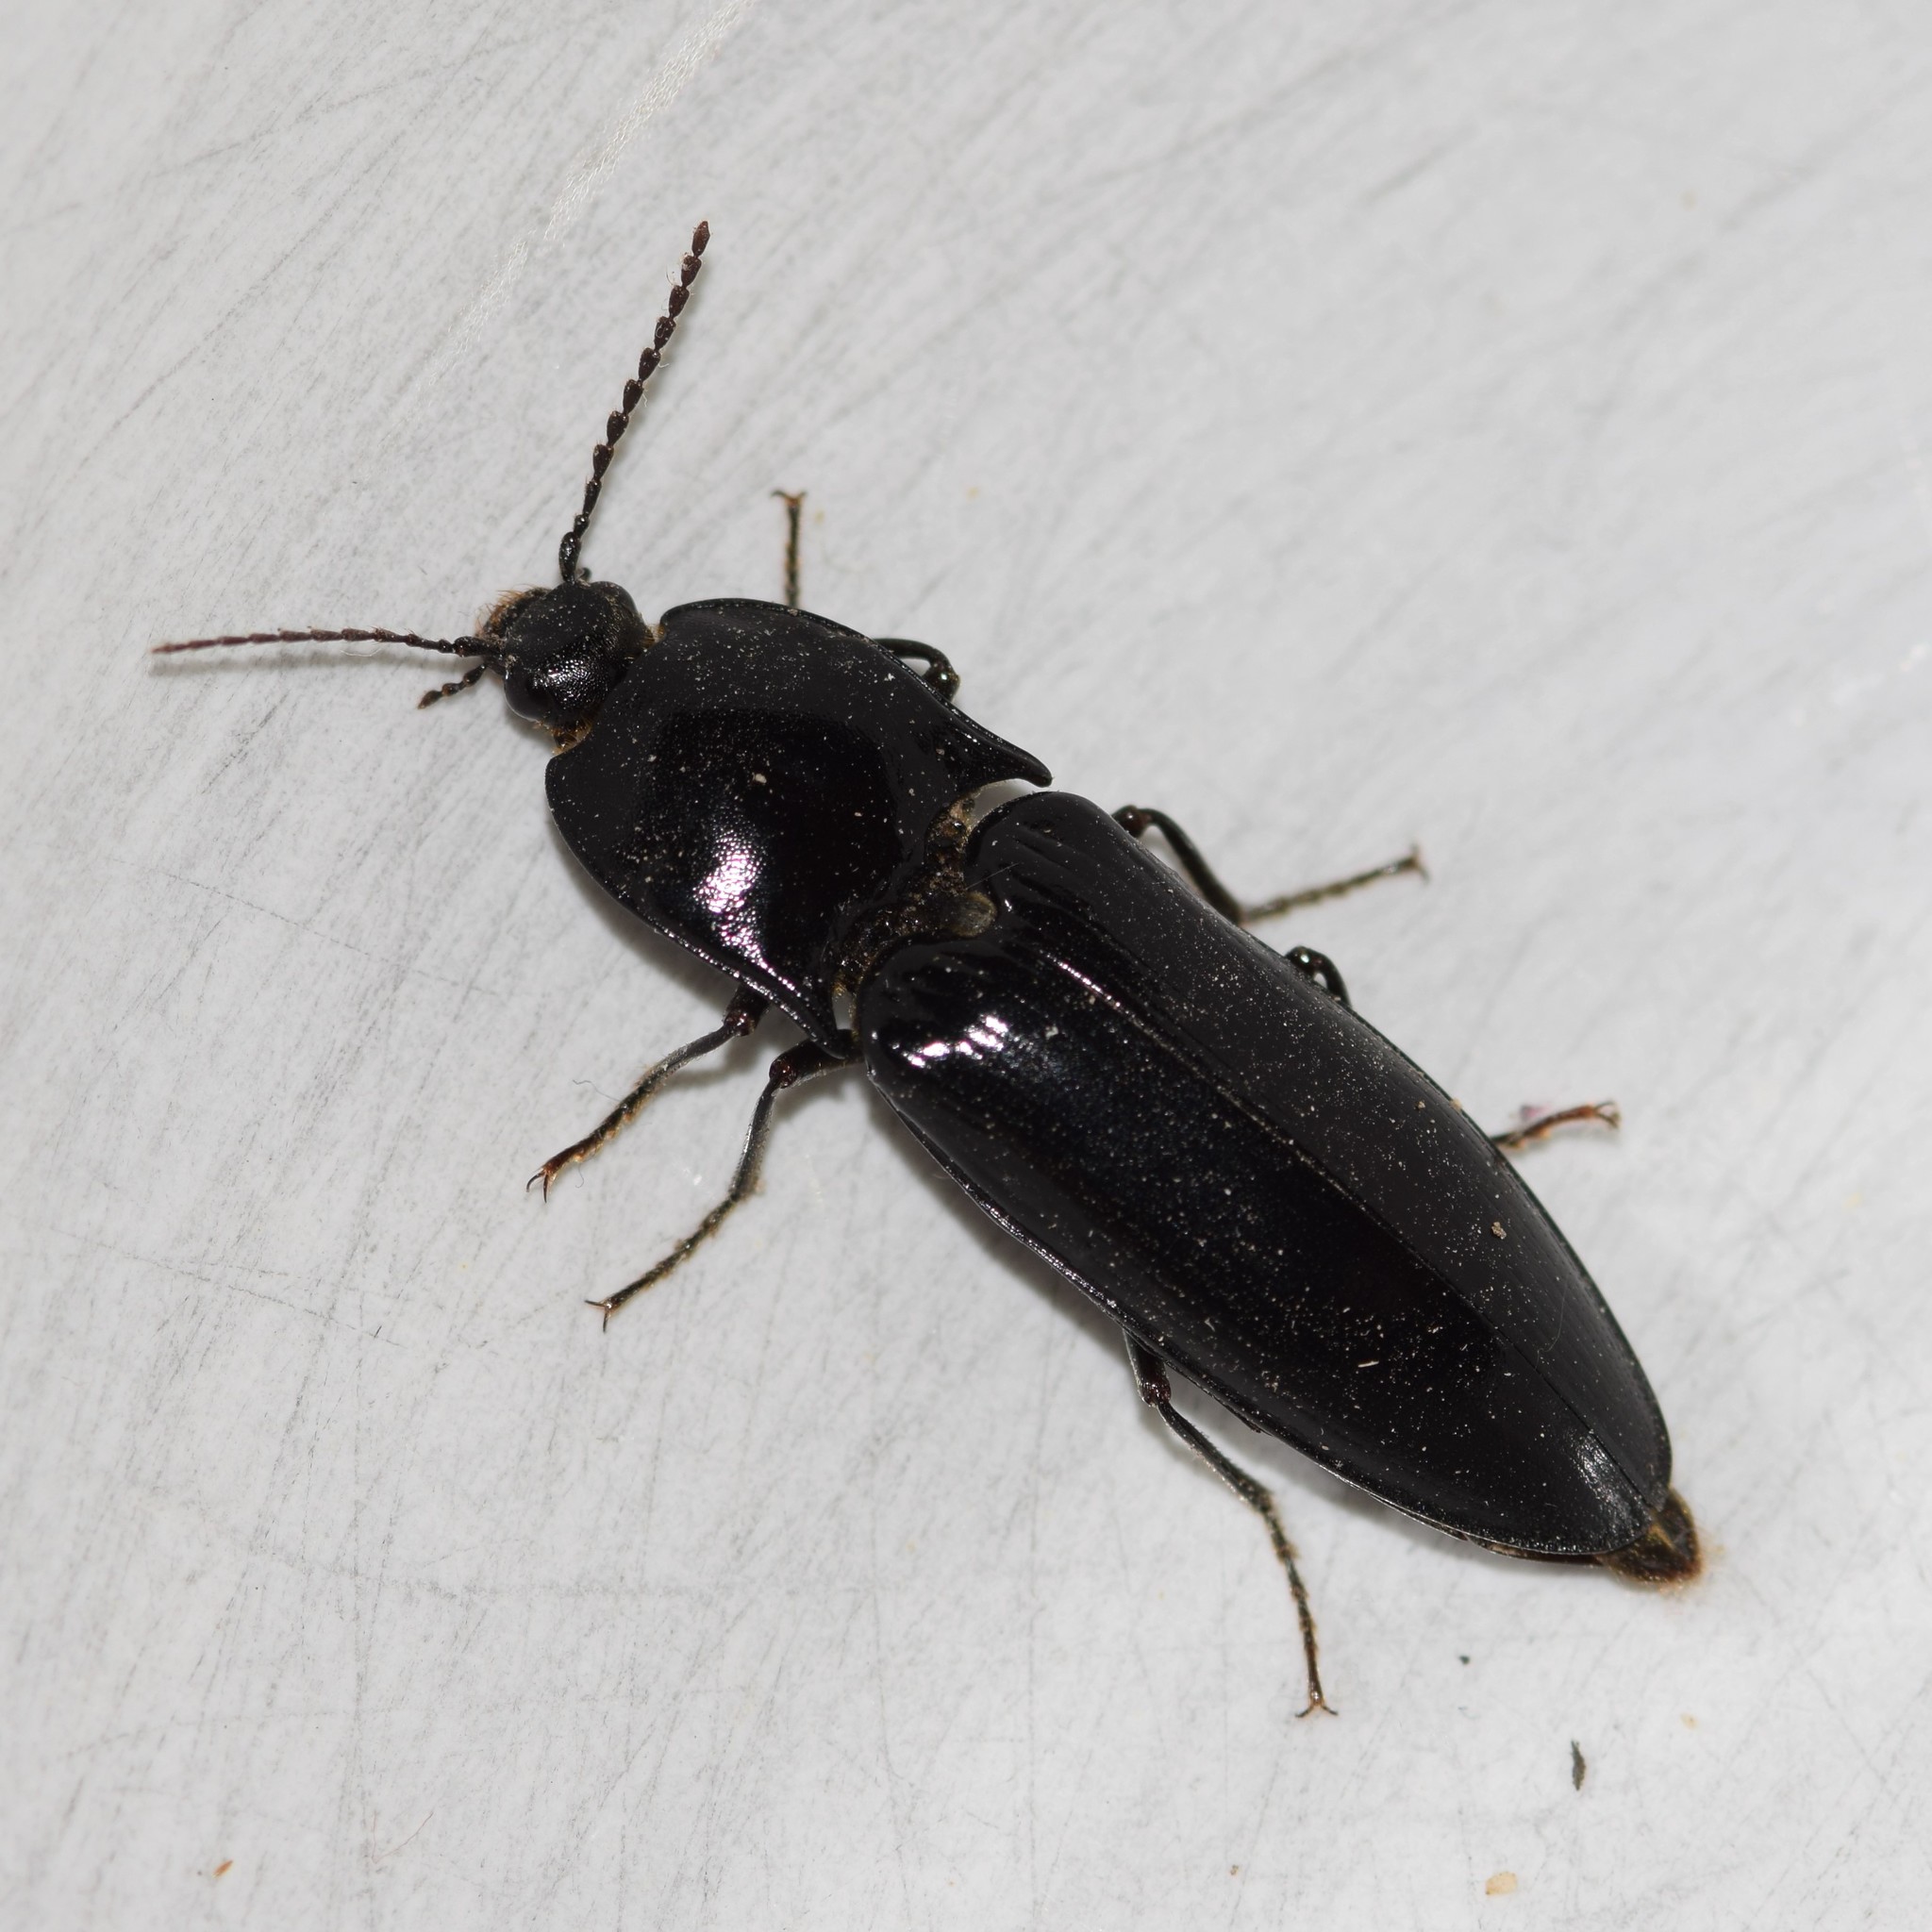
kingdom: Animalia
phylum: Arthropoda
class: Insecta
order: Coleoptera
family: Elateridae
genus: Melanactes
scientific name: Melanactes piceus
